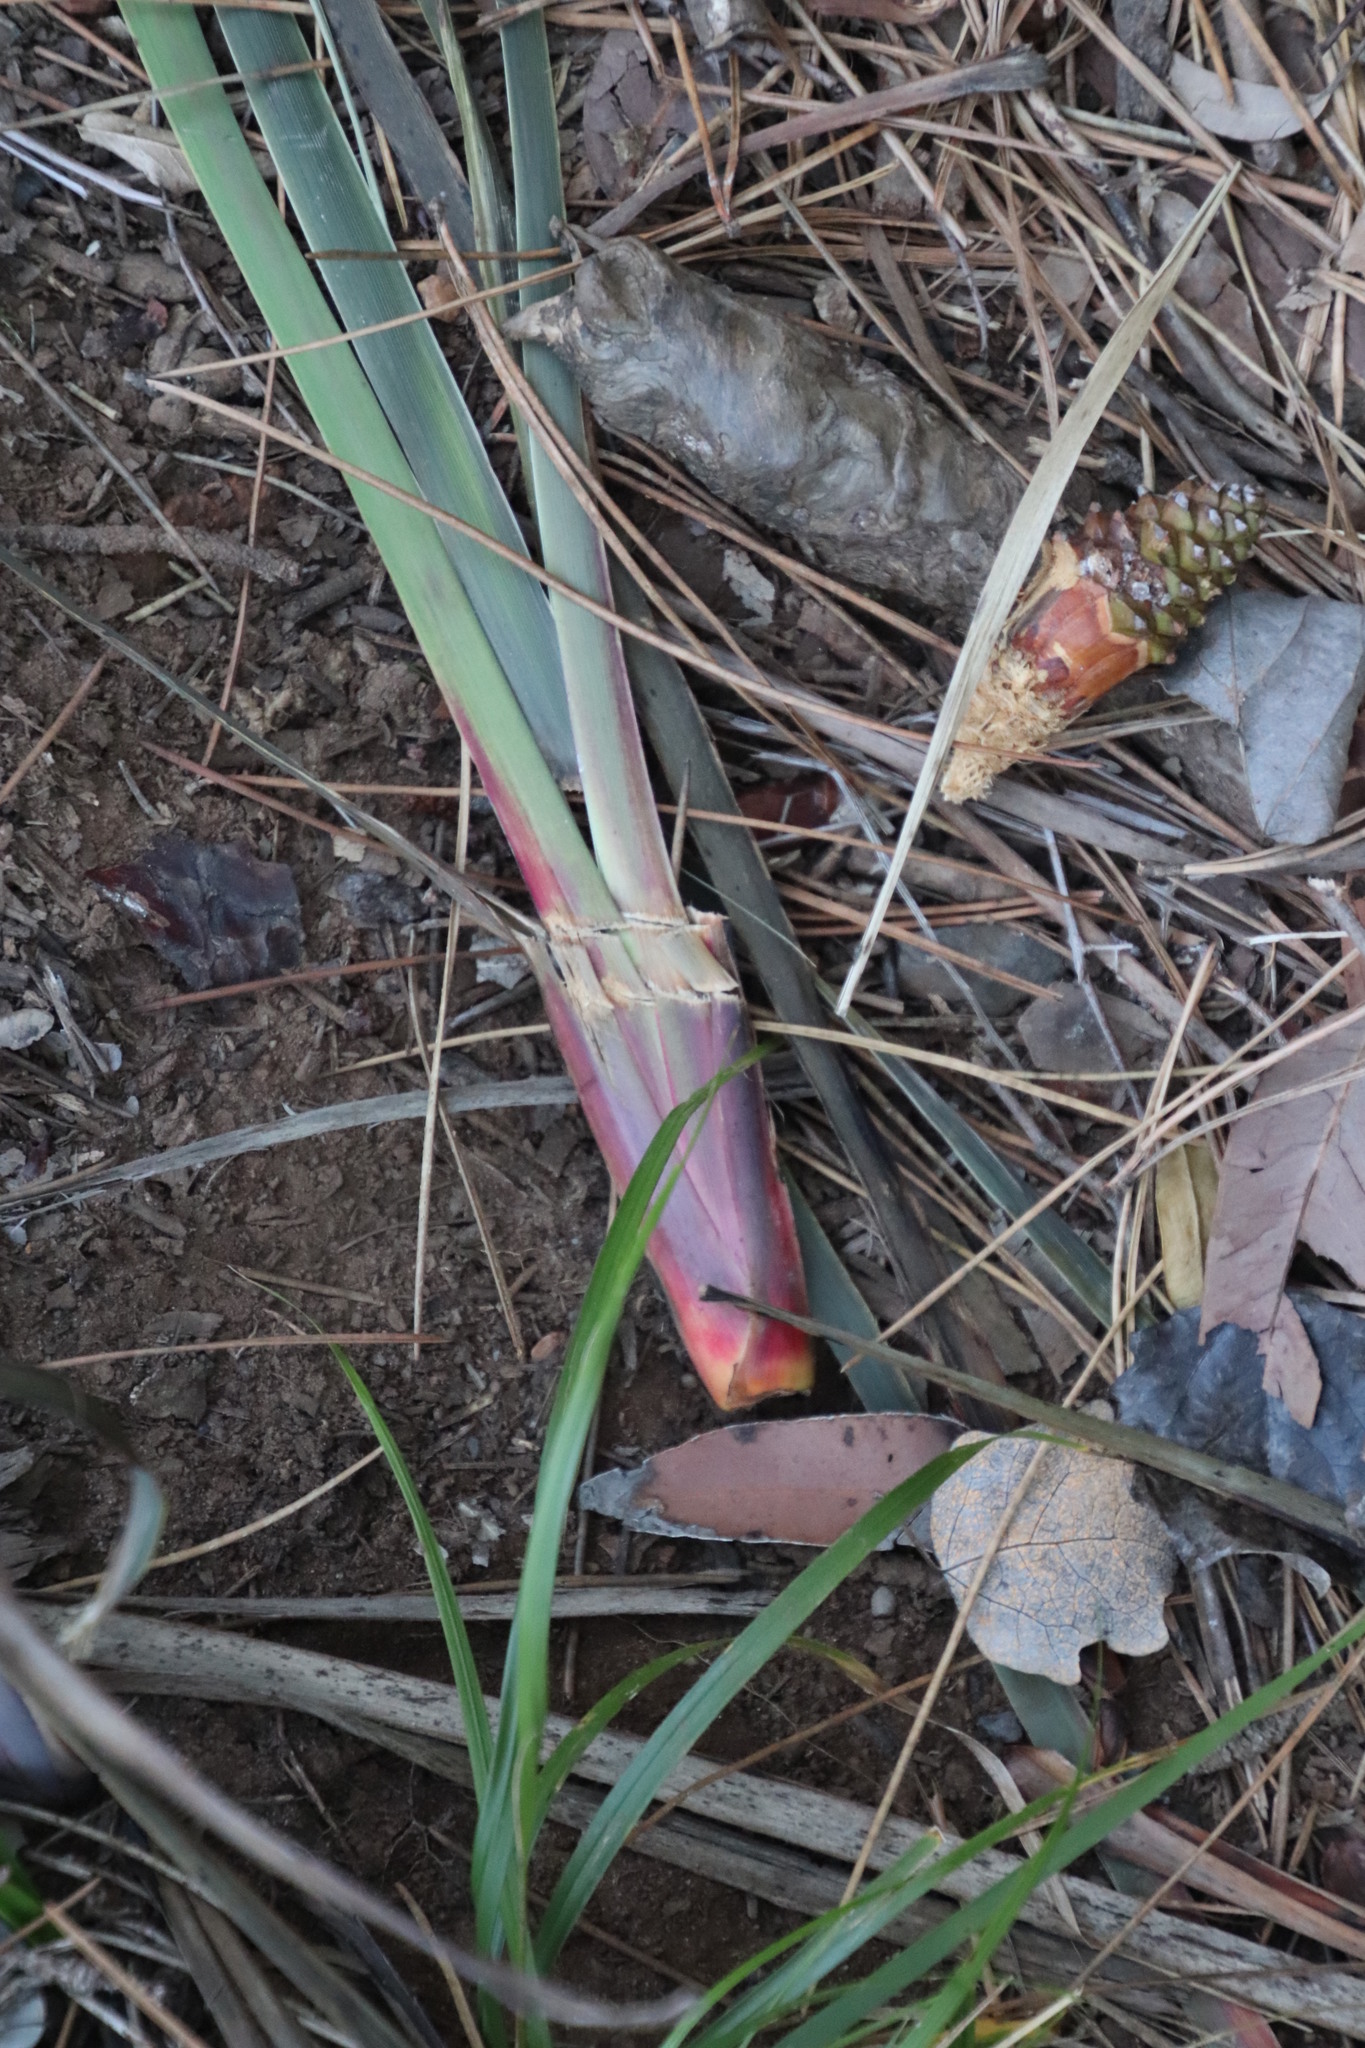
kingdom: Animalia
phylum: Chordata
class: Mammalia
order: Rodentia
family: Hystricidae
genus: Hystrix
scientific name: Hystrix africaeaustralis
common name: Cape porcupine
